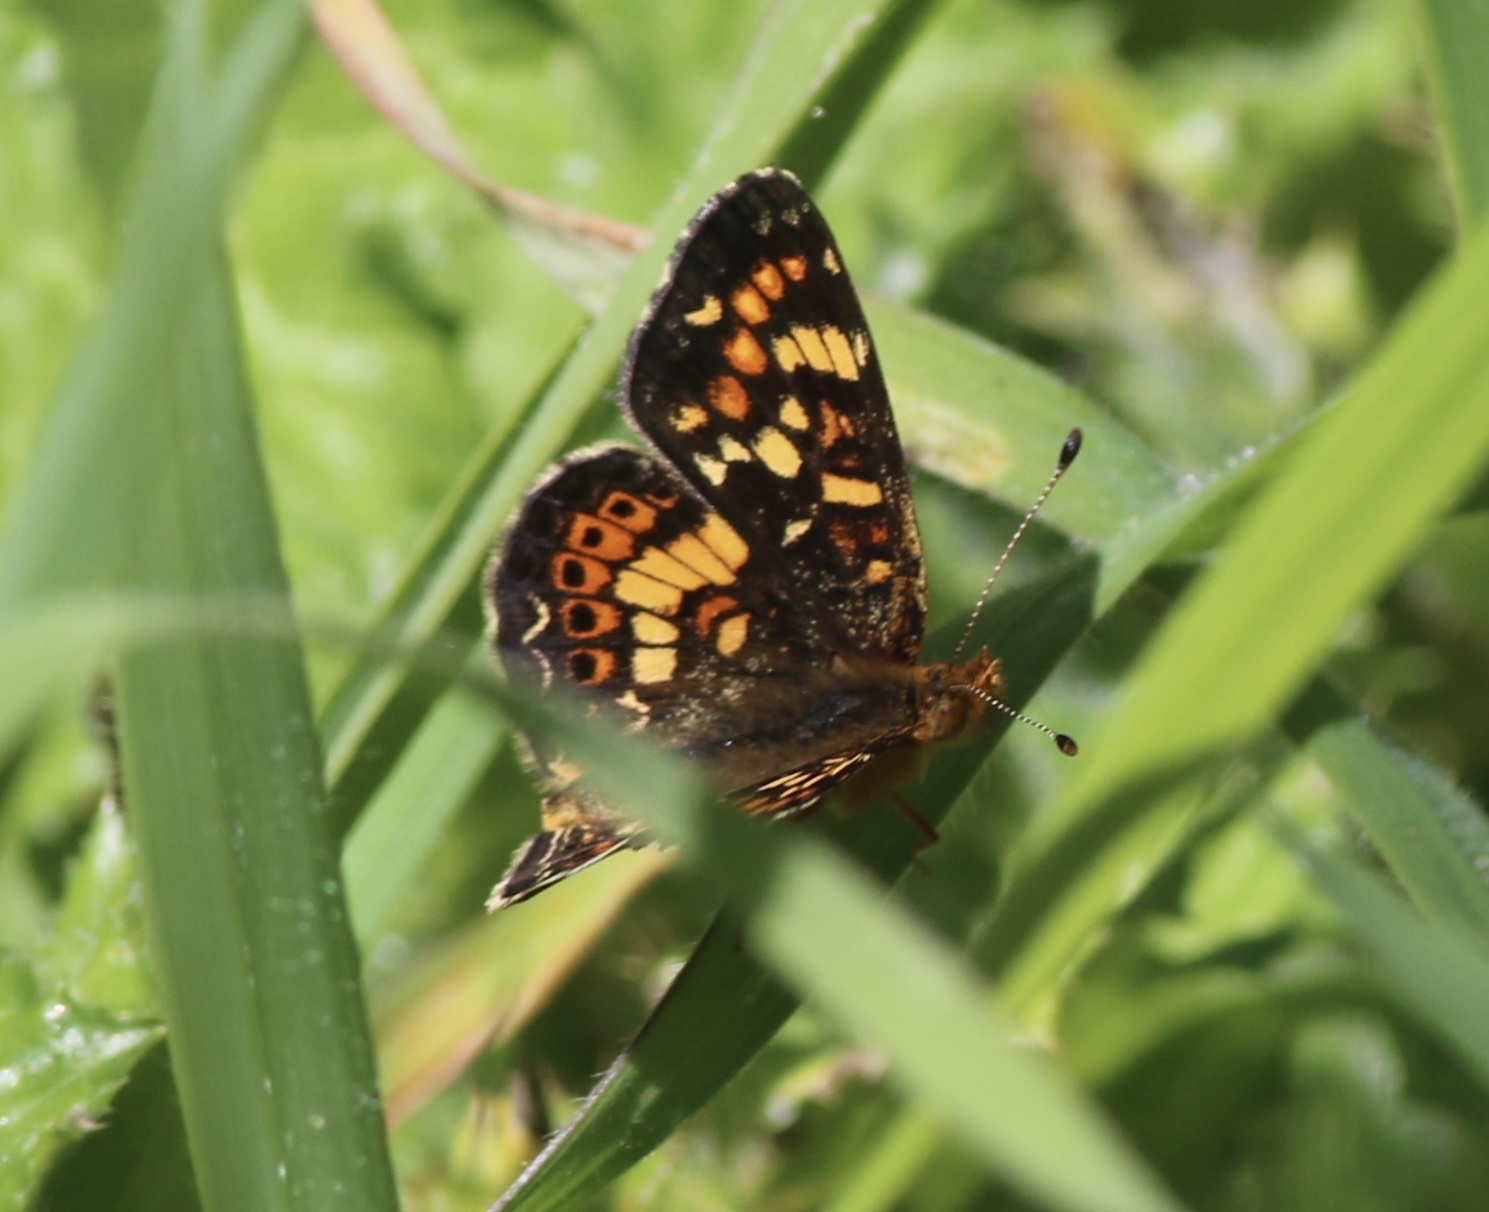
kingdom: Animalia
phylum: Arthropoda
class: Insecta
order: Lepidoptera
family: Nymphalidae
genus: Phyciodes
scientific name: Phyciodes tharos
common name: Pearl crescent
